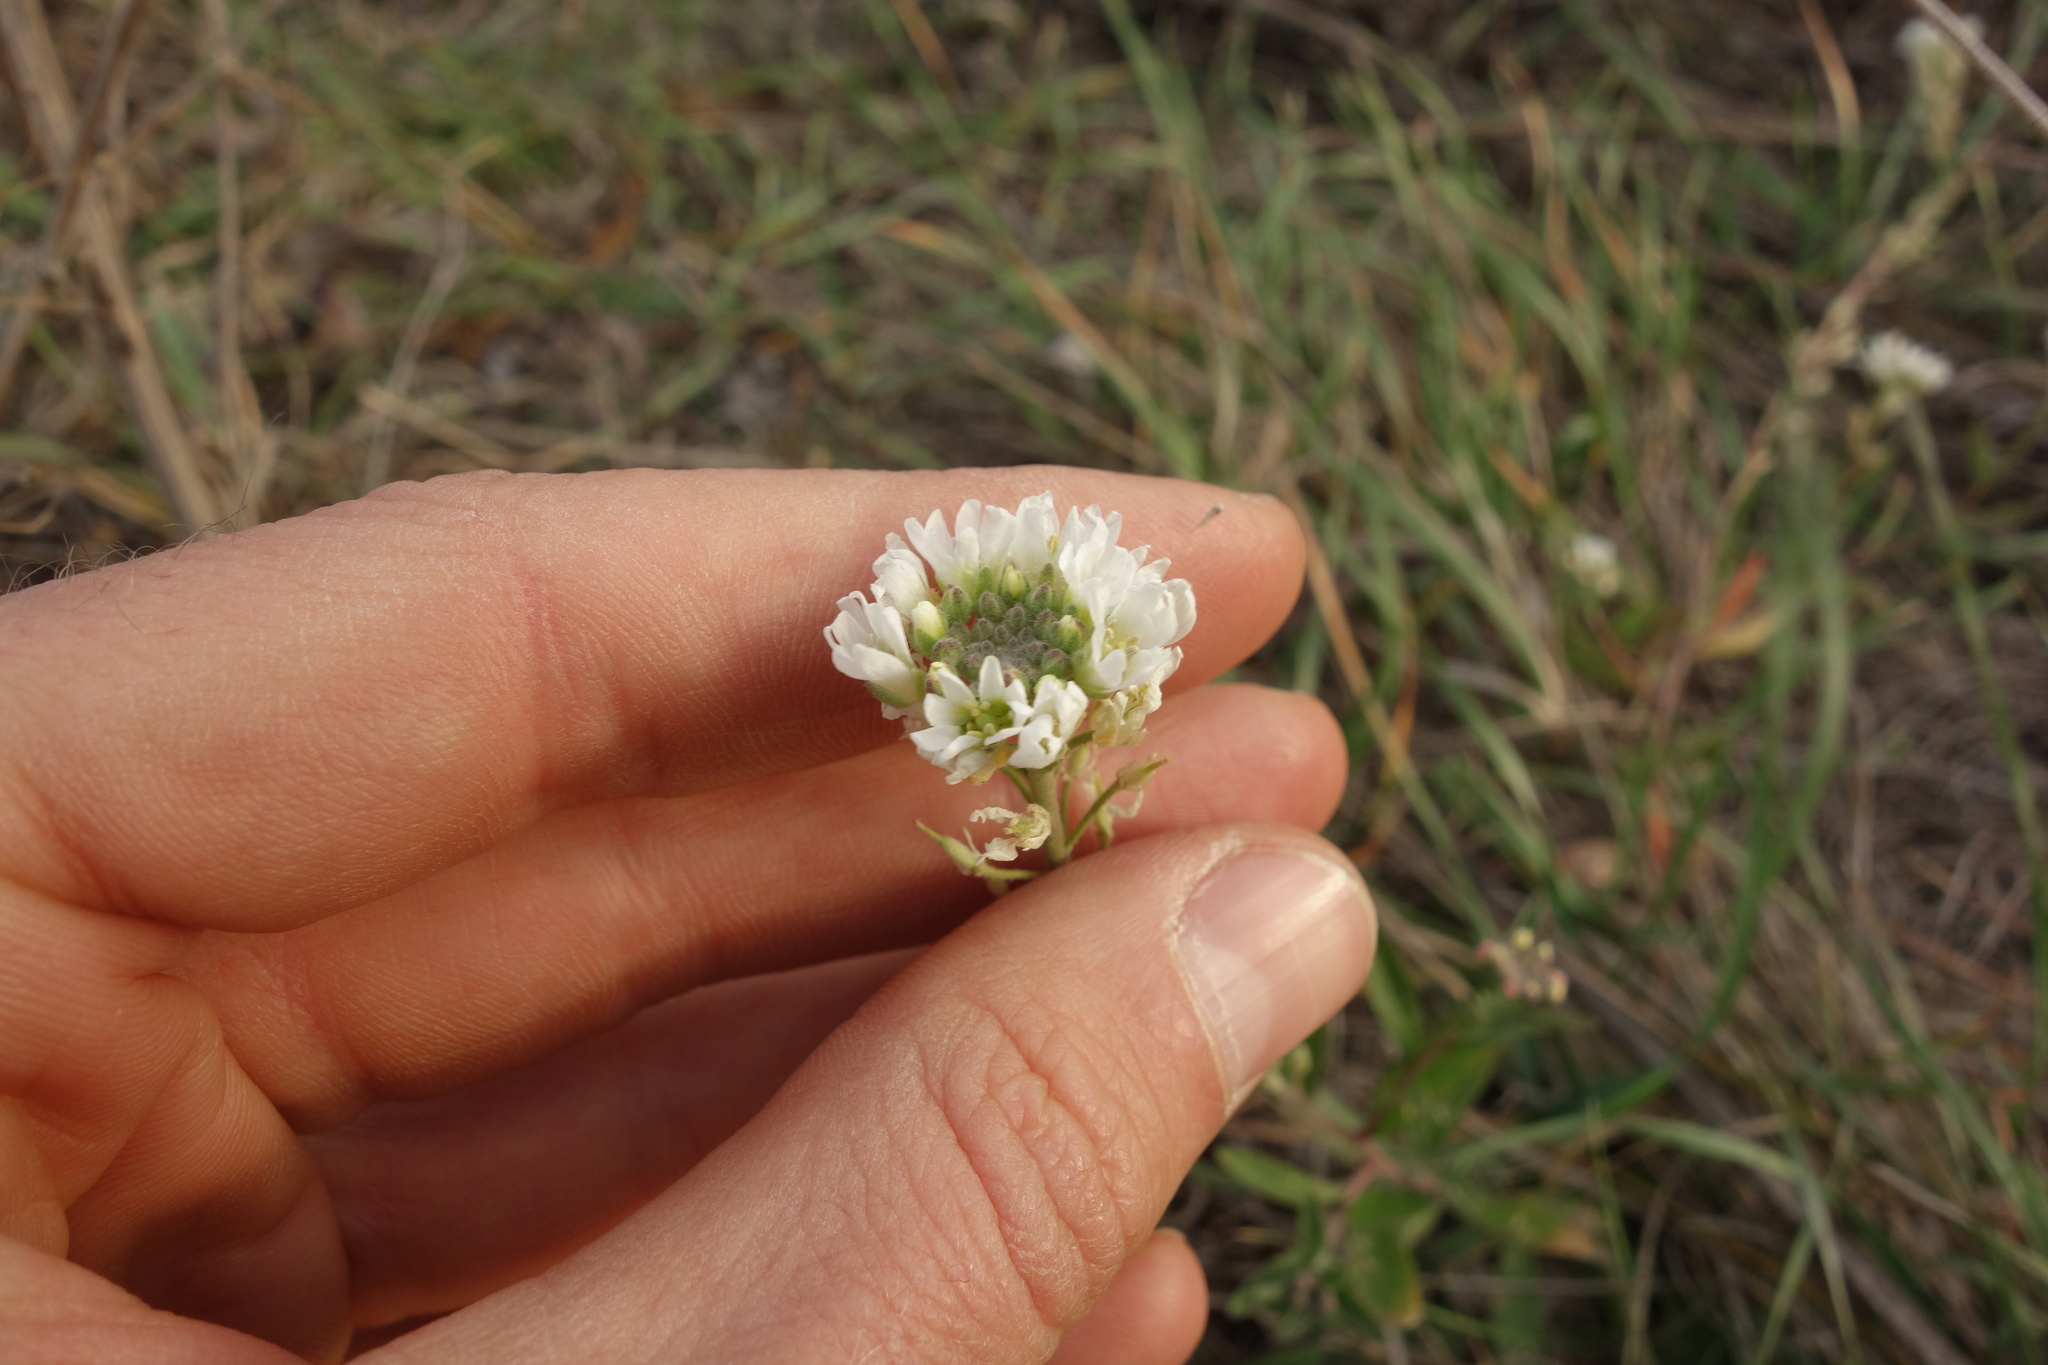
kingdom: Plantae
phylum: Tracheophyta
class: Magnoliopsida
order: Brassicales
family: Brassicaceae
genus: Berteroa
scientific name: Berteroa incana
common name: Hoary alison
